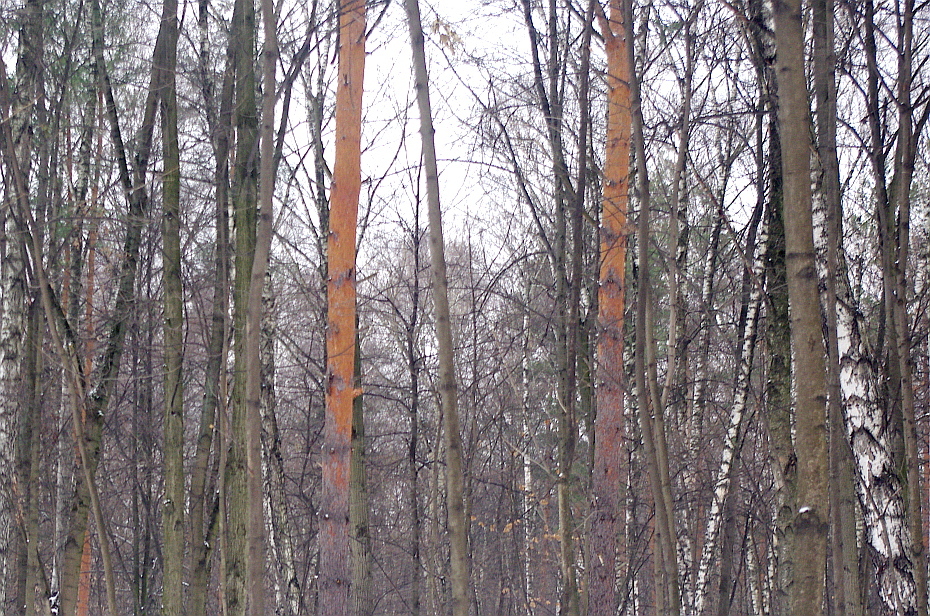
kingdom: Plantae
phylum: Tracheophyta
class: Pinopsida
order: Pinales
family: Pinaceae
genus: Pinus
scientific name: Pinus sylvestris
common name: Scots pine
